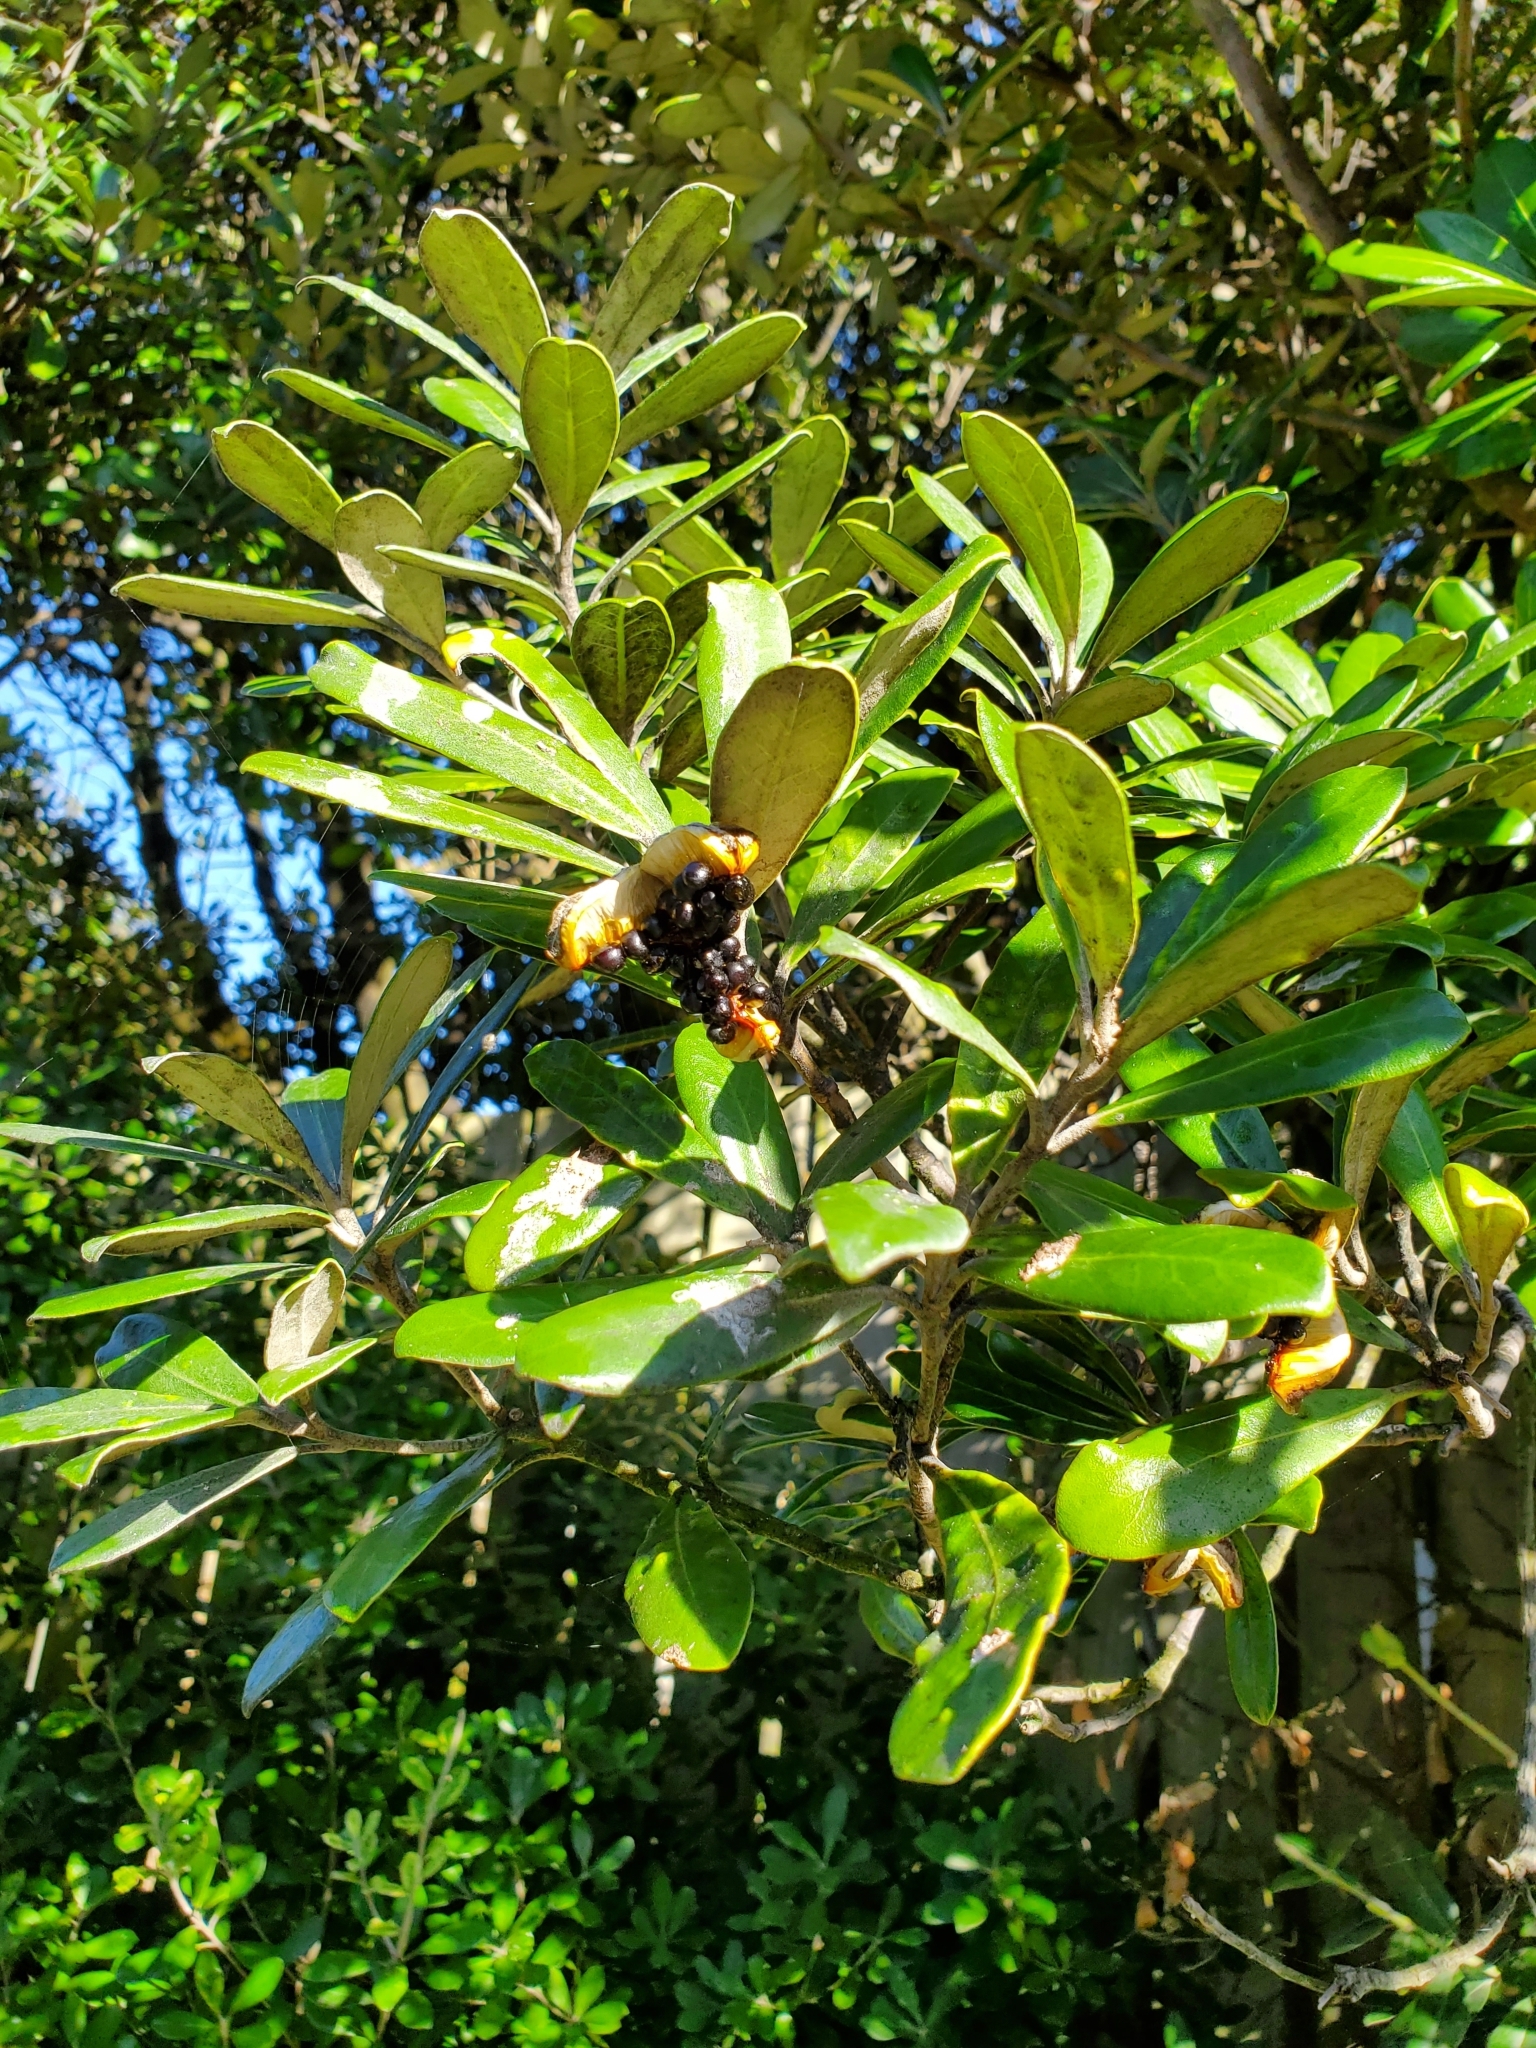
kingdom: Plantae
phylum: Tracheophyta
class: Magnoliopsida
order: Apiales
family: Pittosporaceae
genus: Pittosporum
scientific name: Pittosporum crassifolium
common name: Karo
